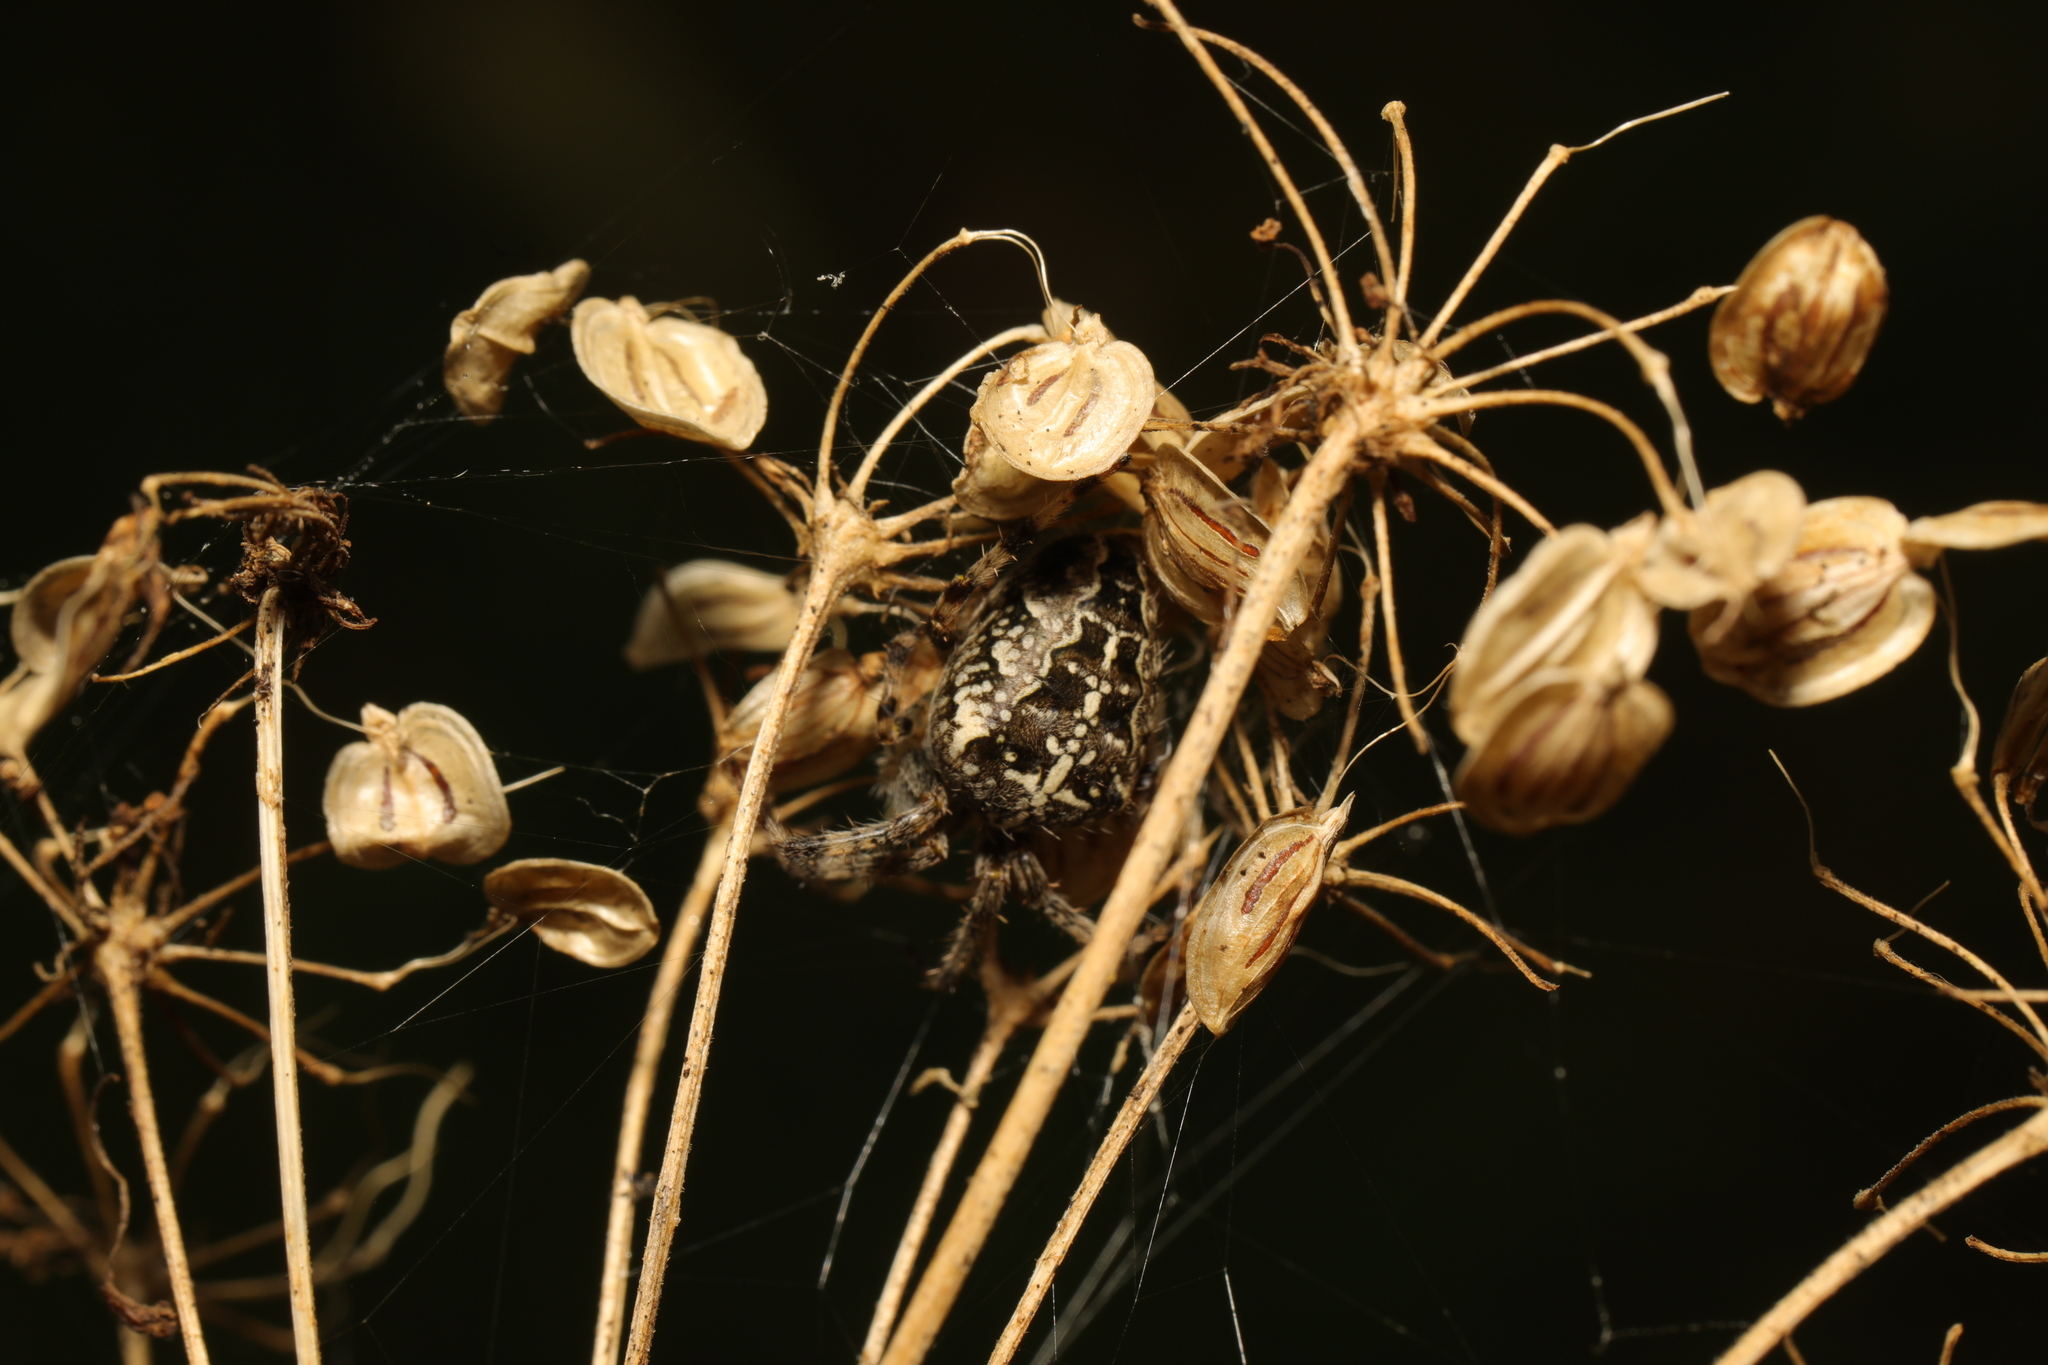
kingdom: Plantae
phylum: Tracheophyta
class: Magnoliopsida
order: Apiales
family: Apiaceae
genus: Heracleum
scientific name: Heracleum sphondylium
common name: Hogweed
